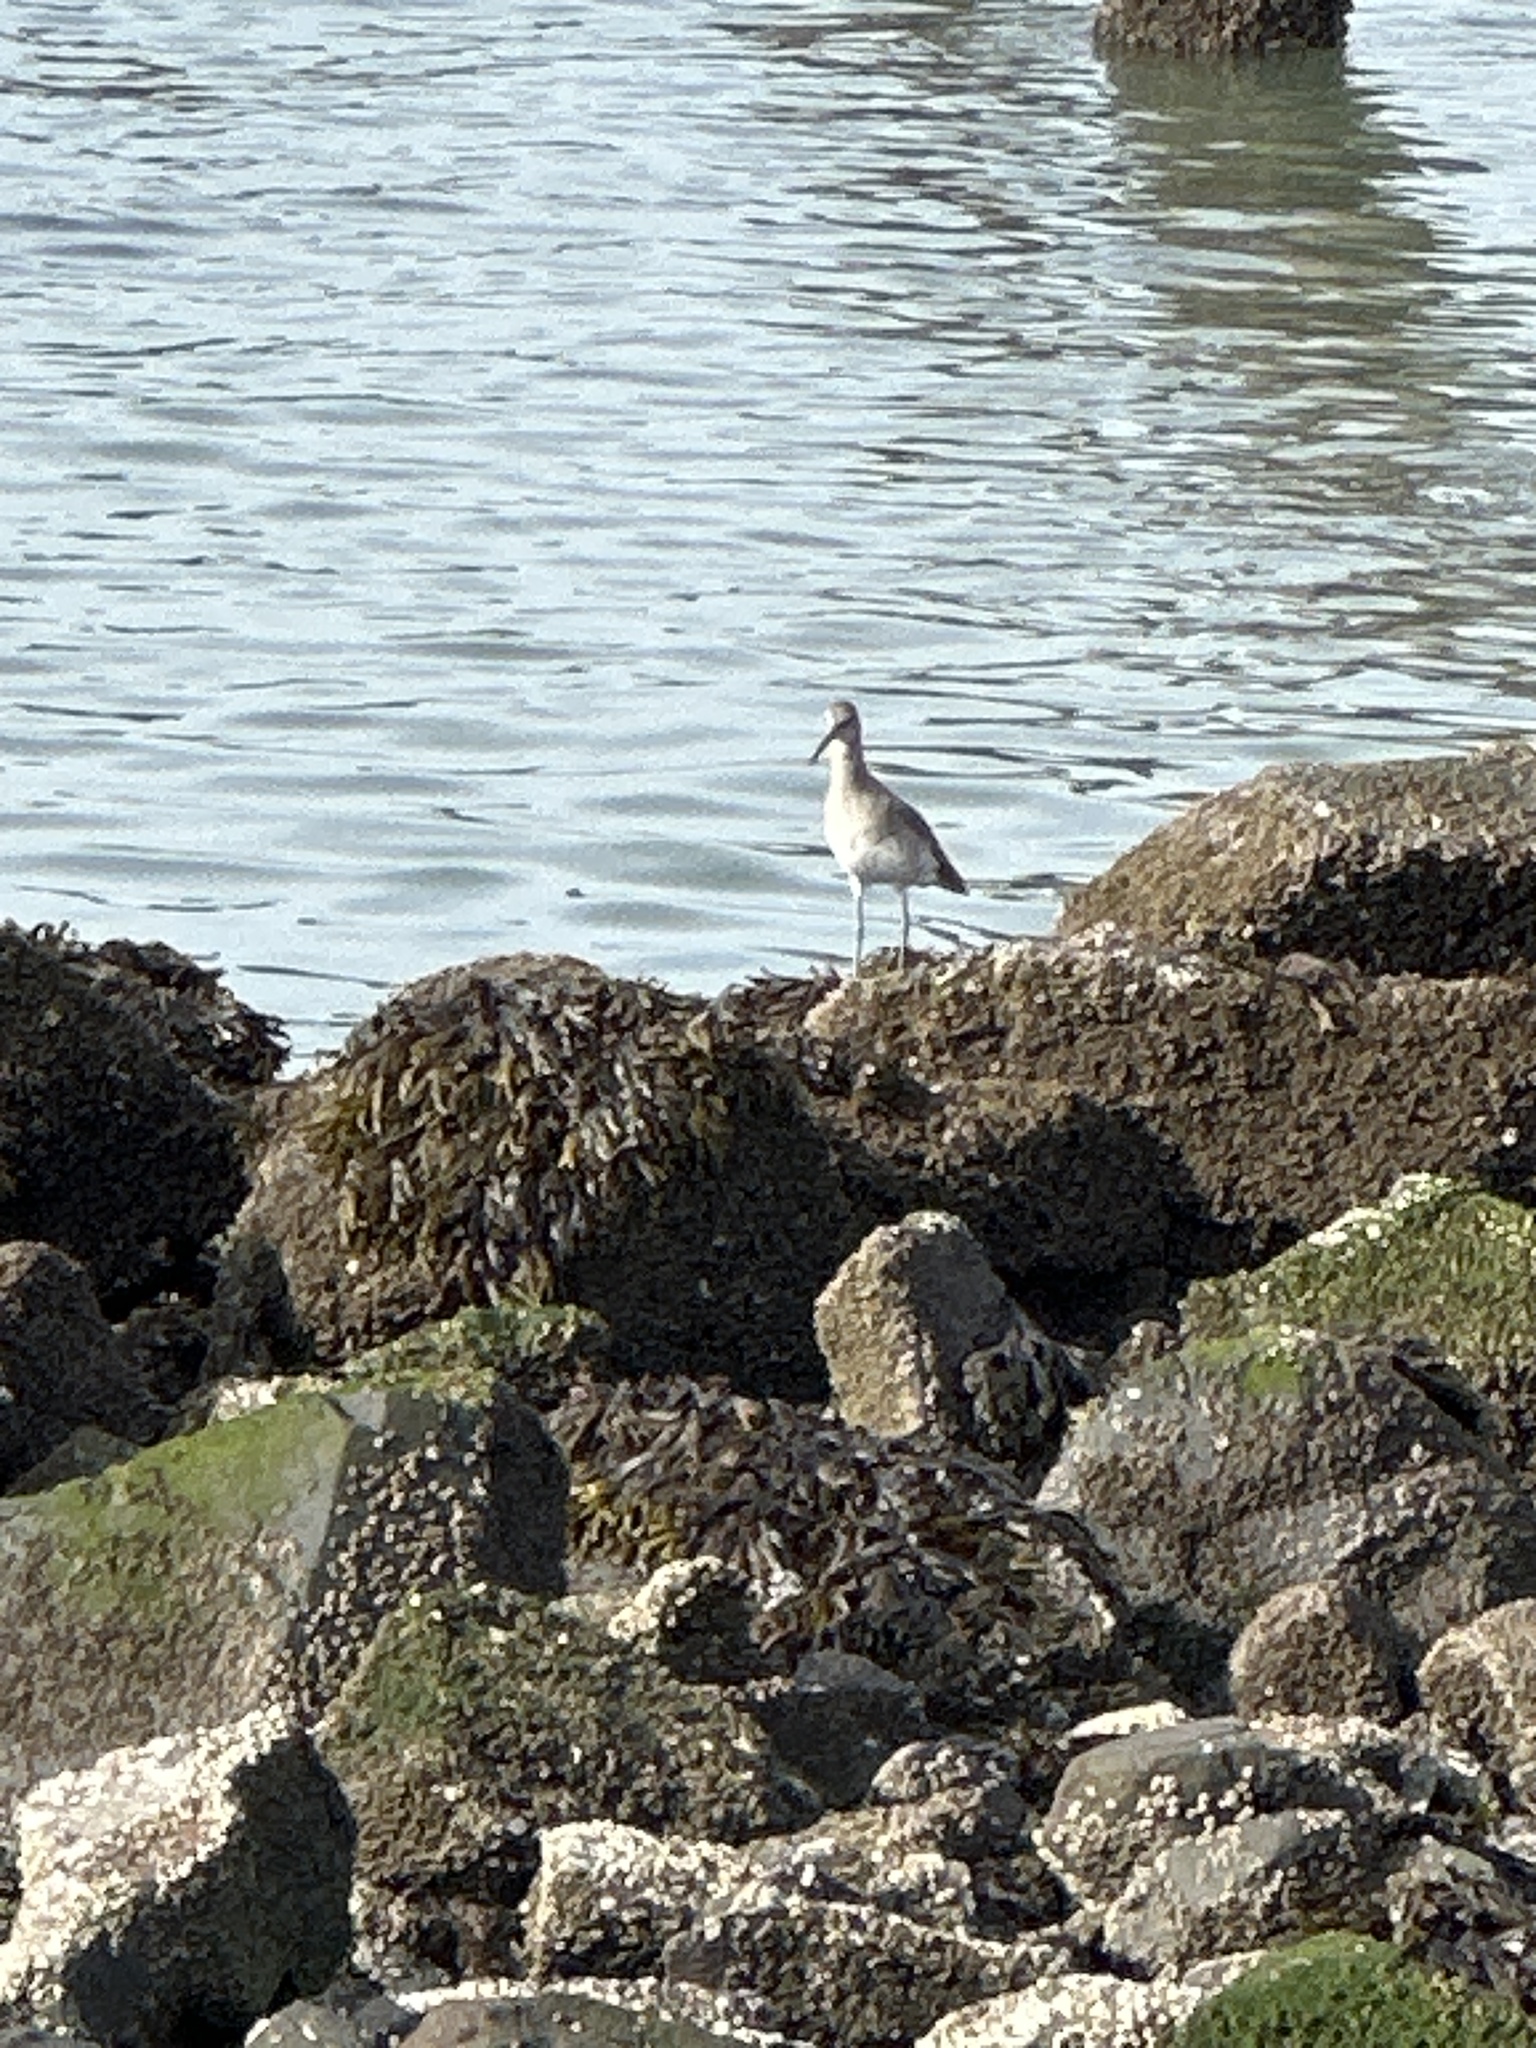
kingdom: Animalia
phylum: Chordata
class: Aves
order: Charadriiformes
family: Scolopacidae
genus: Tringa
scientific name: Tringa semipalmata
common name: Willet
